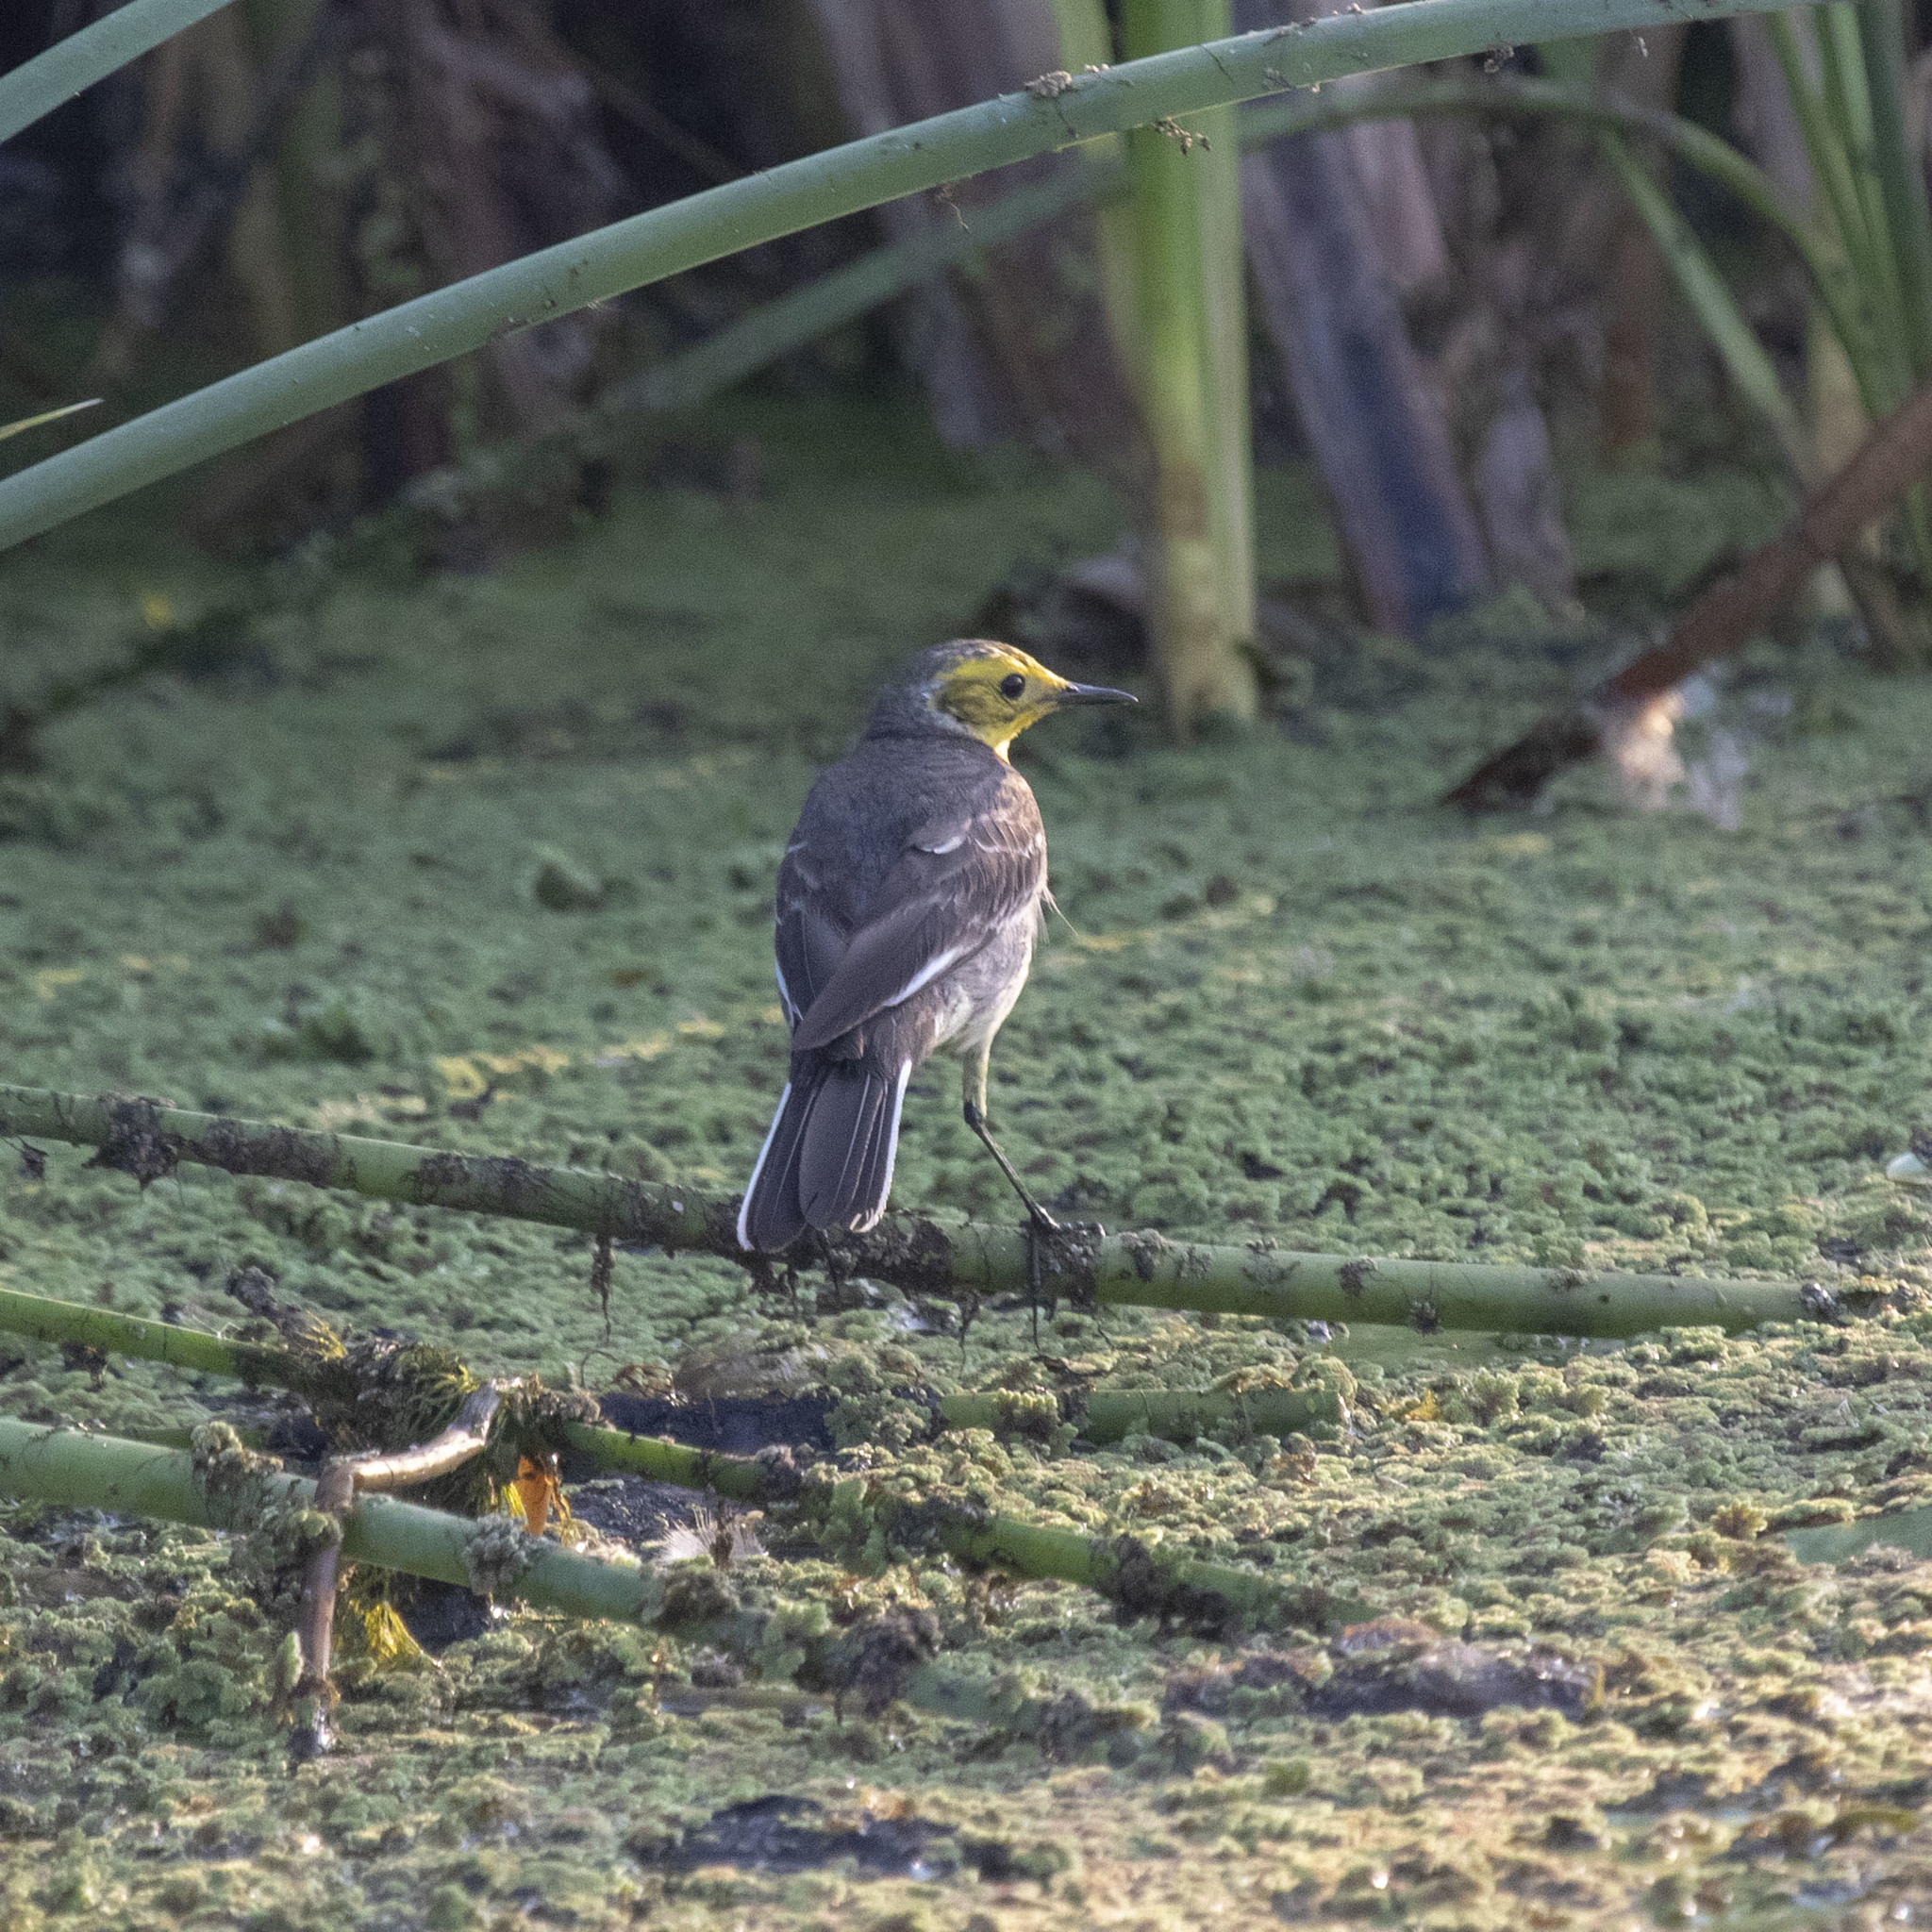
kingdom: Animalia
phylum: Chordata
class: Aves
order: Passeriformes
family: Motacillidae
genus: Motacilla
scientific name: Motacilla citreola
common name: Citrine wagtail
